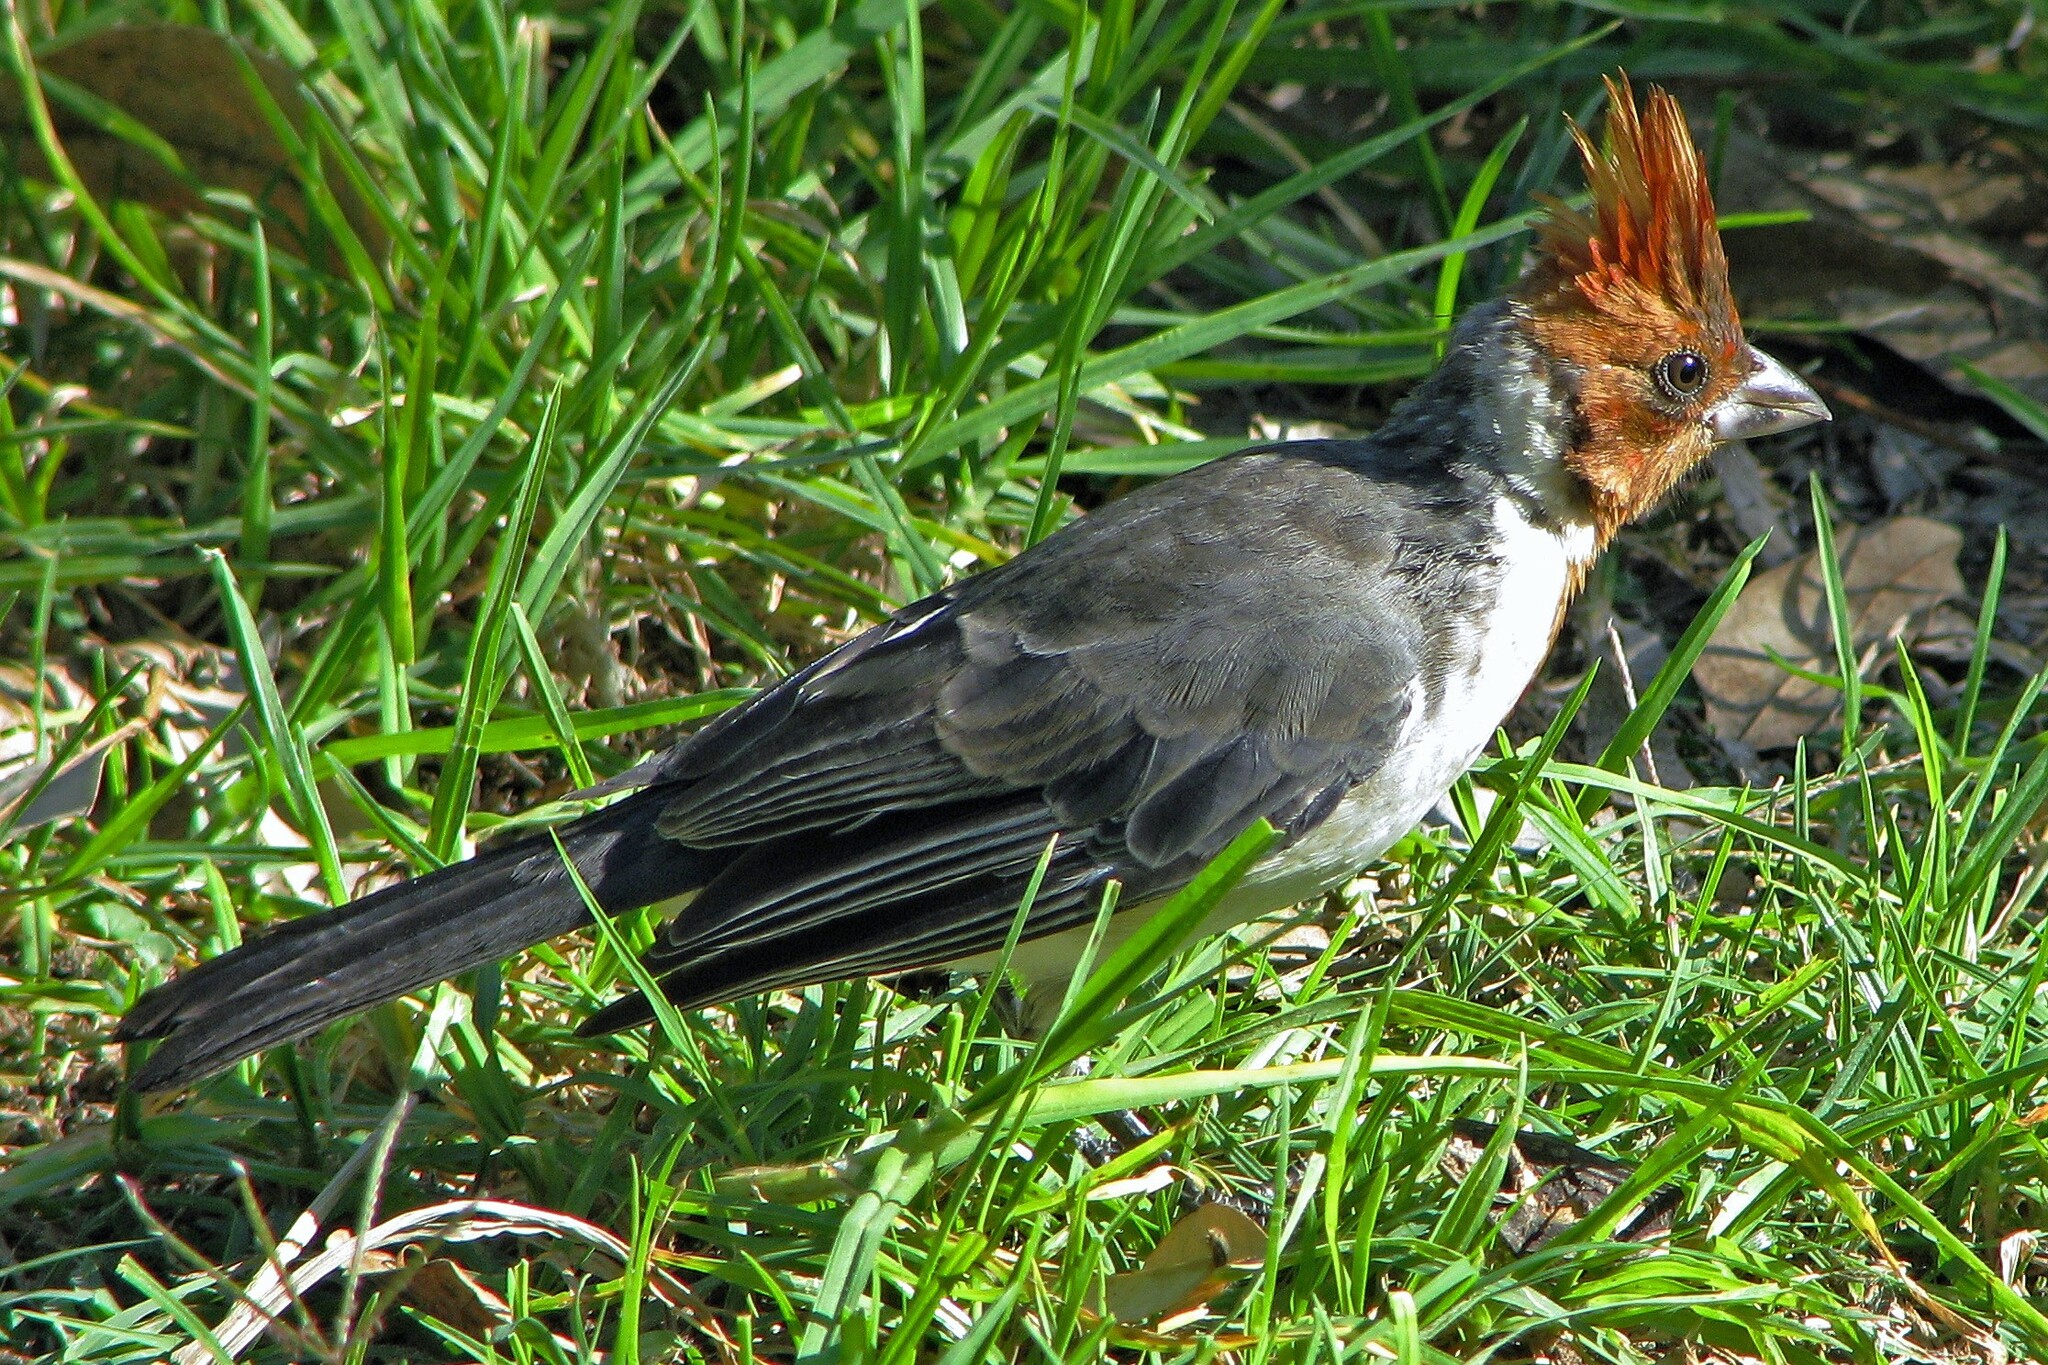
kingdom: Animalia
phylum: Chordata
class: Aves
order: Passeriformes
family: Thraupidae
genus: Paroaria
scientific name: Paroaria coronata
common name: Red-crested cardinal
